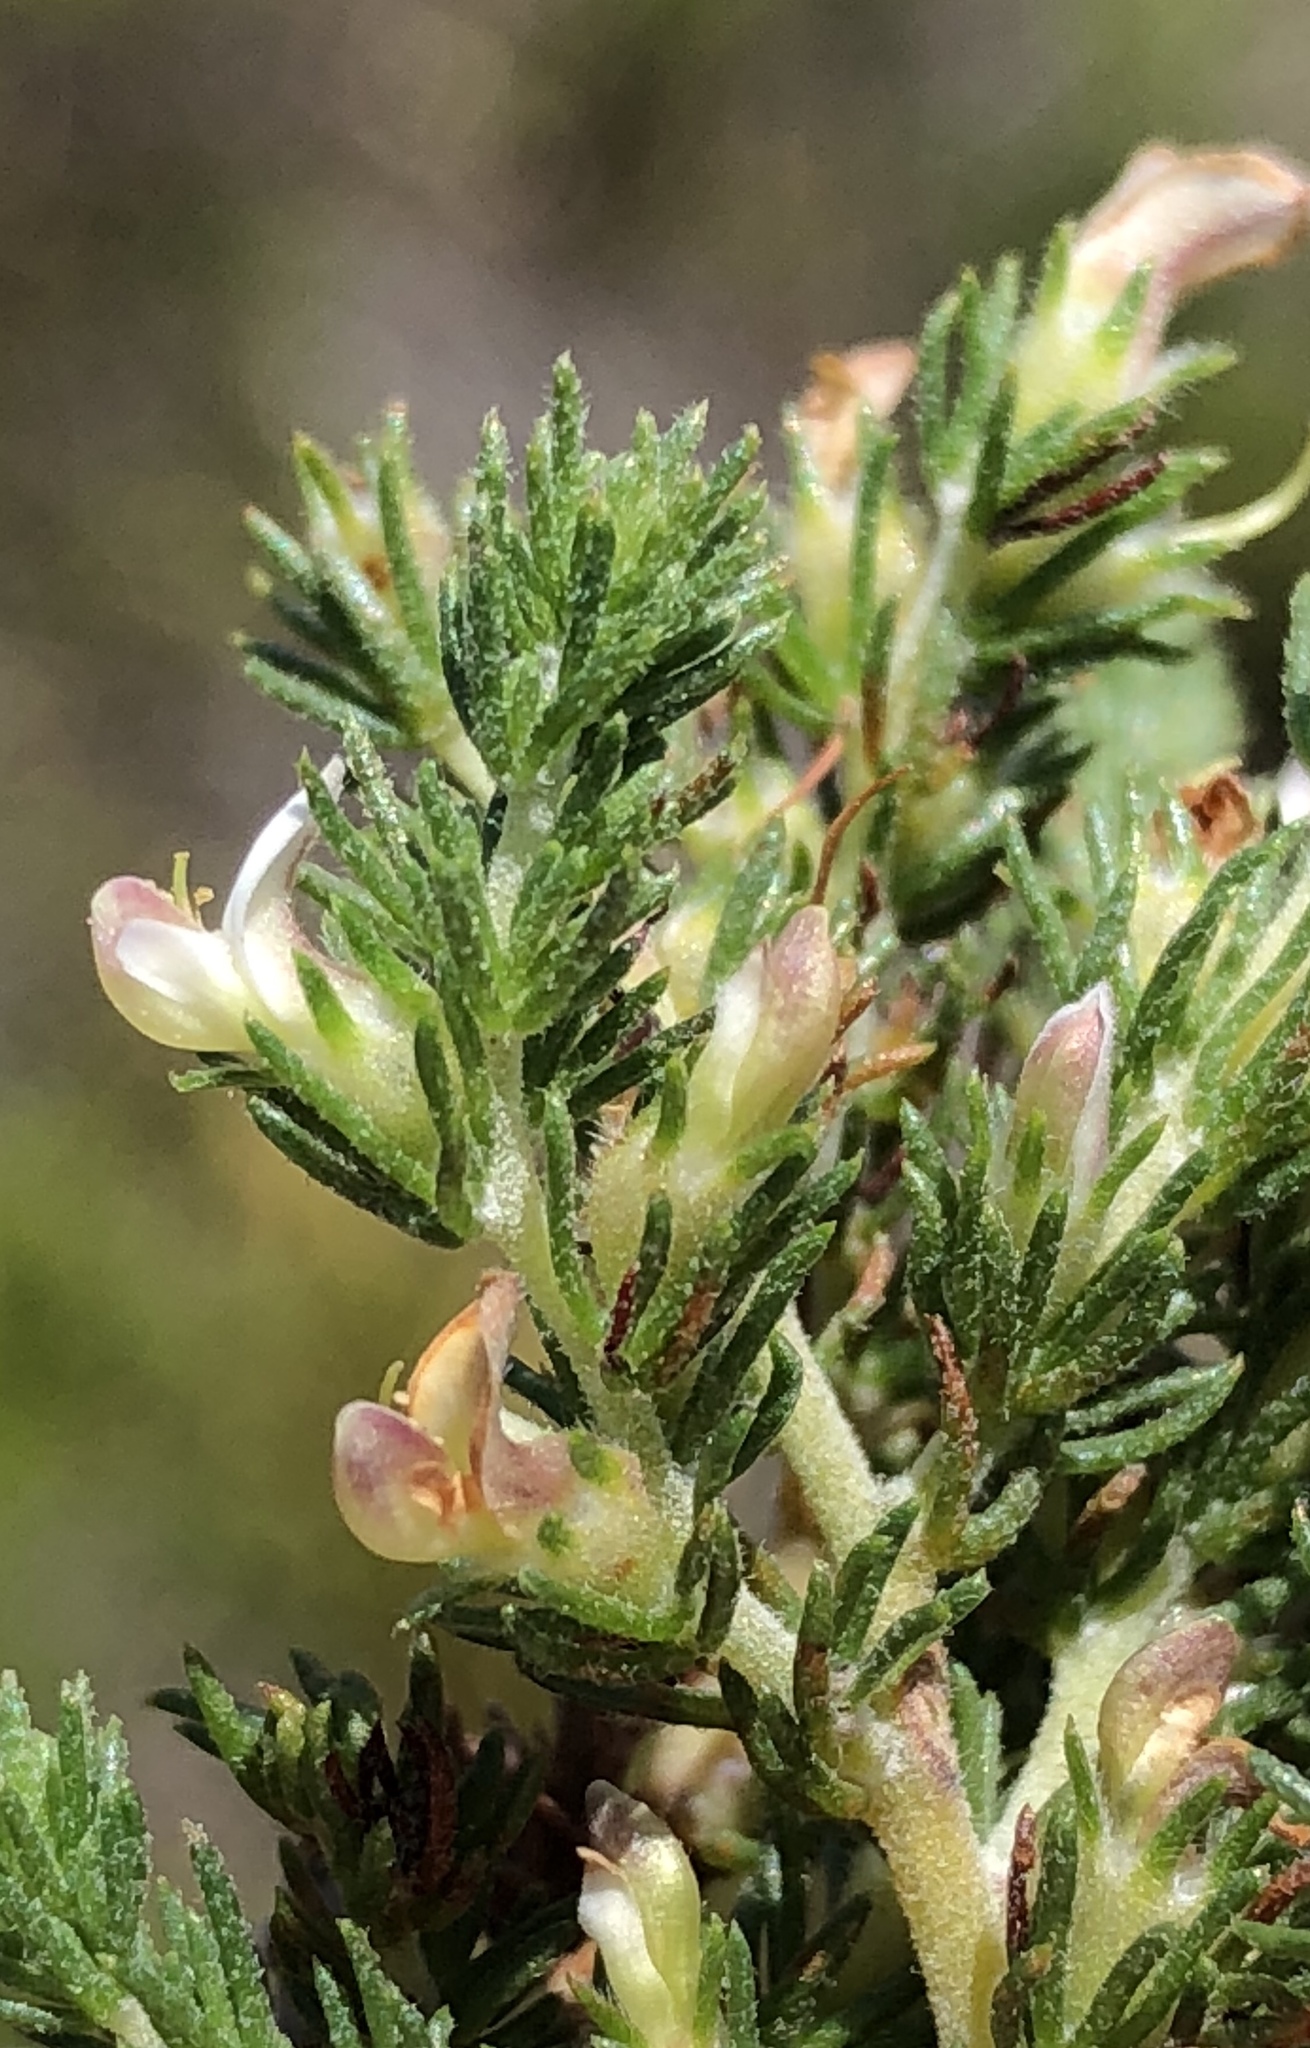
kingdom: Plantae
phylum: Tracheophyta
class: Magnoliopsida
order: Fabales
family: Fabaceae
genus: Aspalathus
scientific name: Aspalathus hispida
